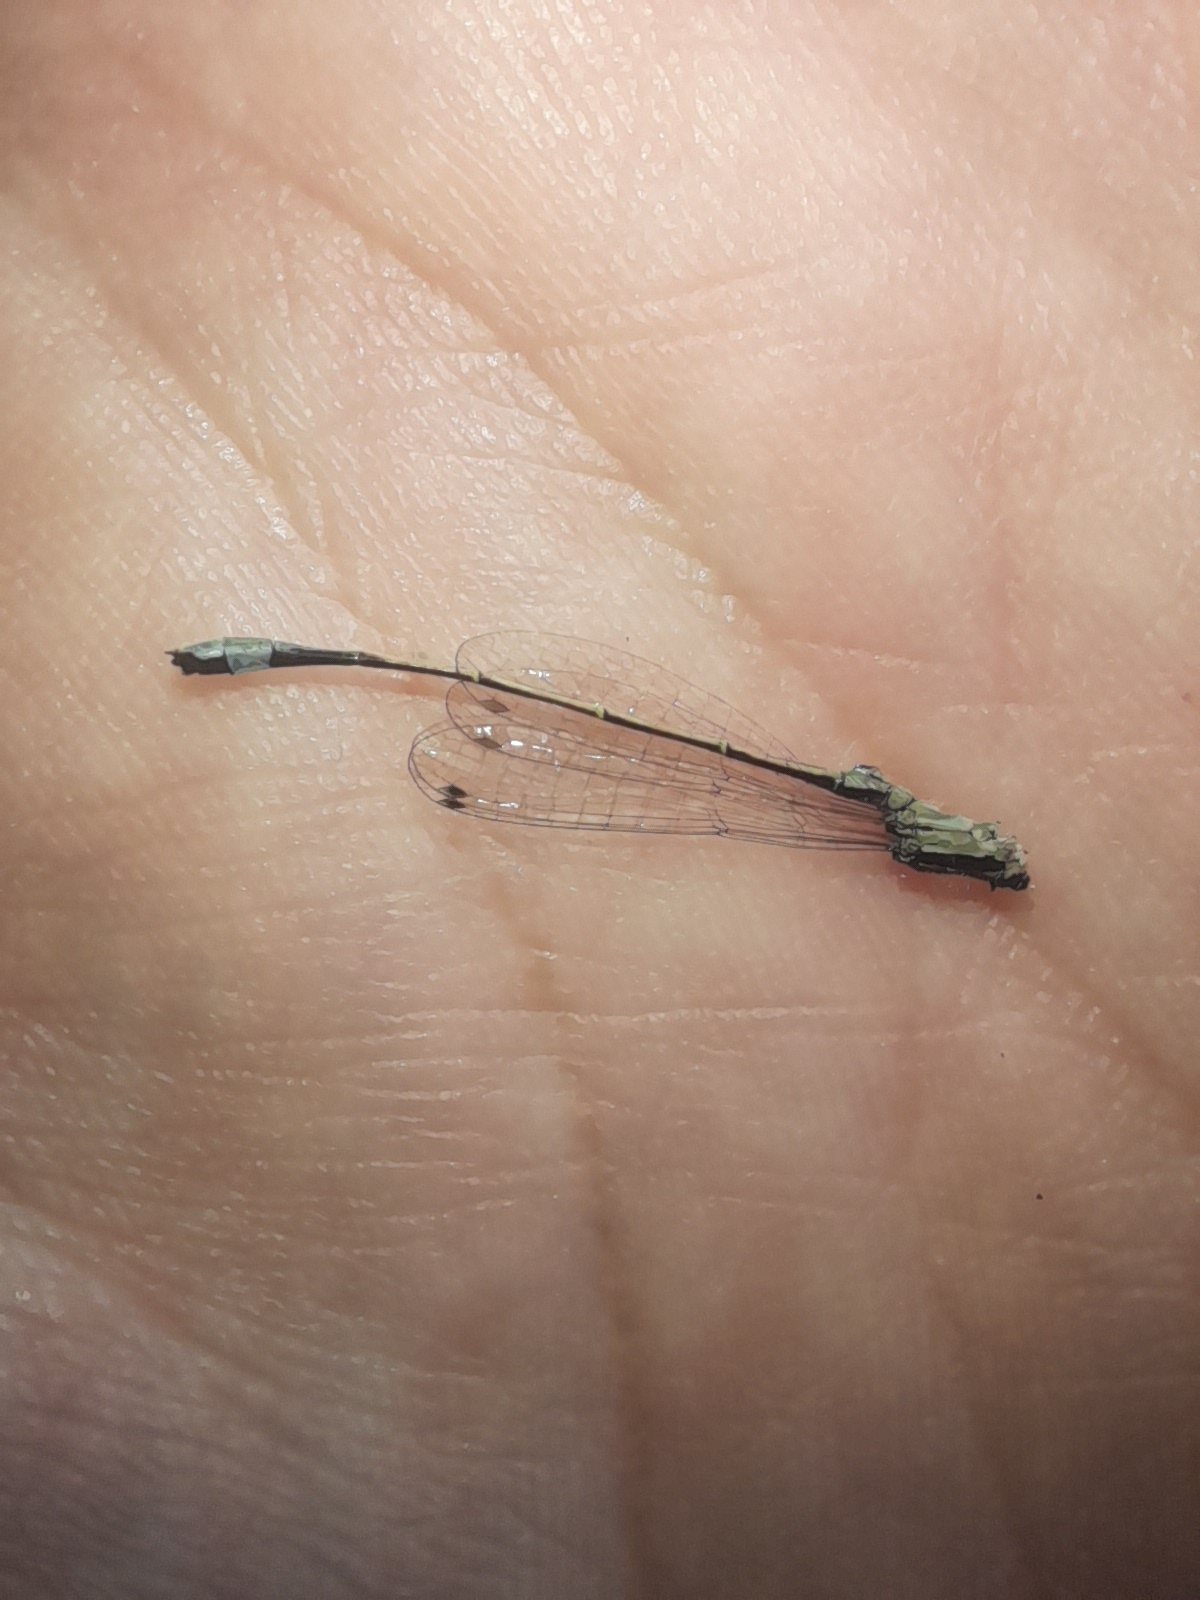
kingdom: Animalia
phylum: Arthropoda
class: Insecta
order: Odonata
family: Coenagrionidae
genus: Ischnura
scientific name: Ischnura elegans
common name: Blue-tailed damselfly
